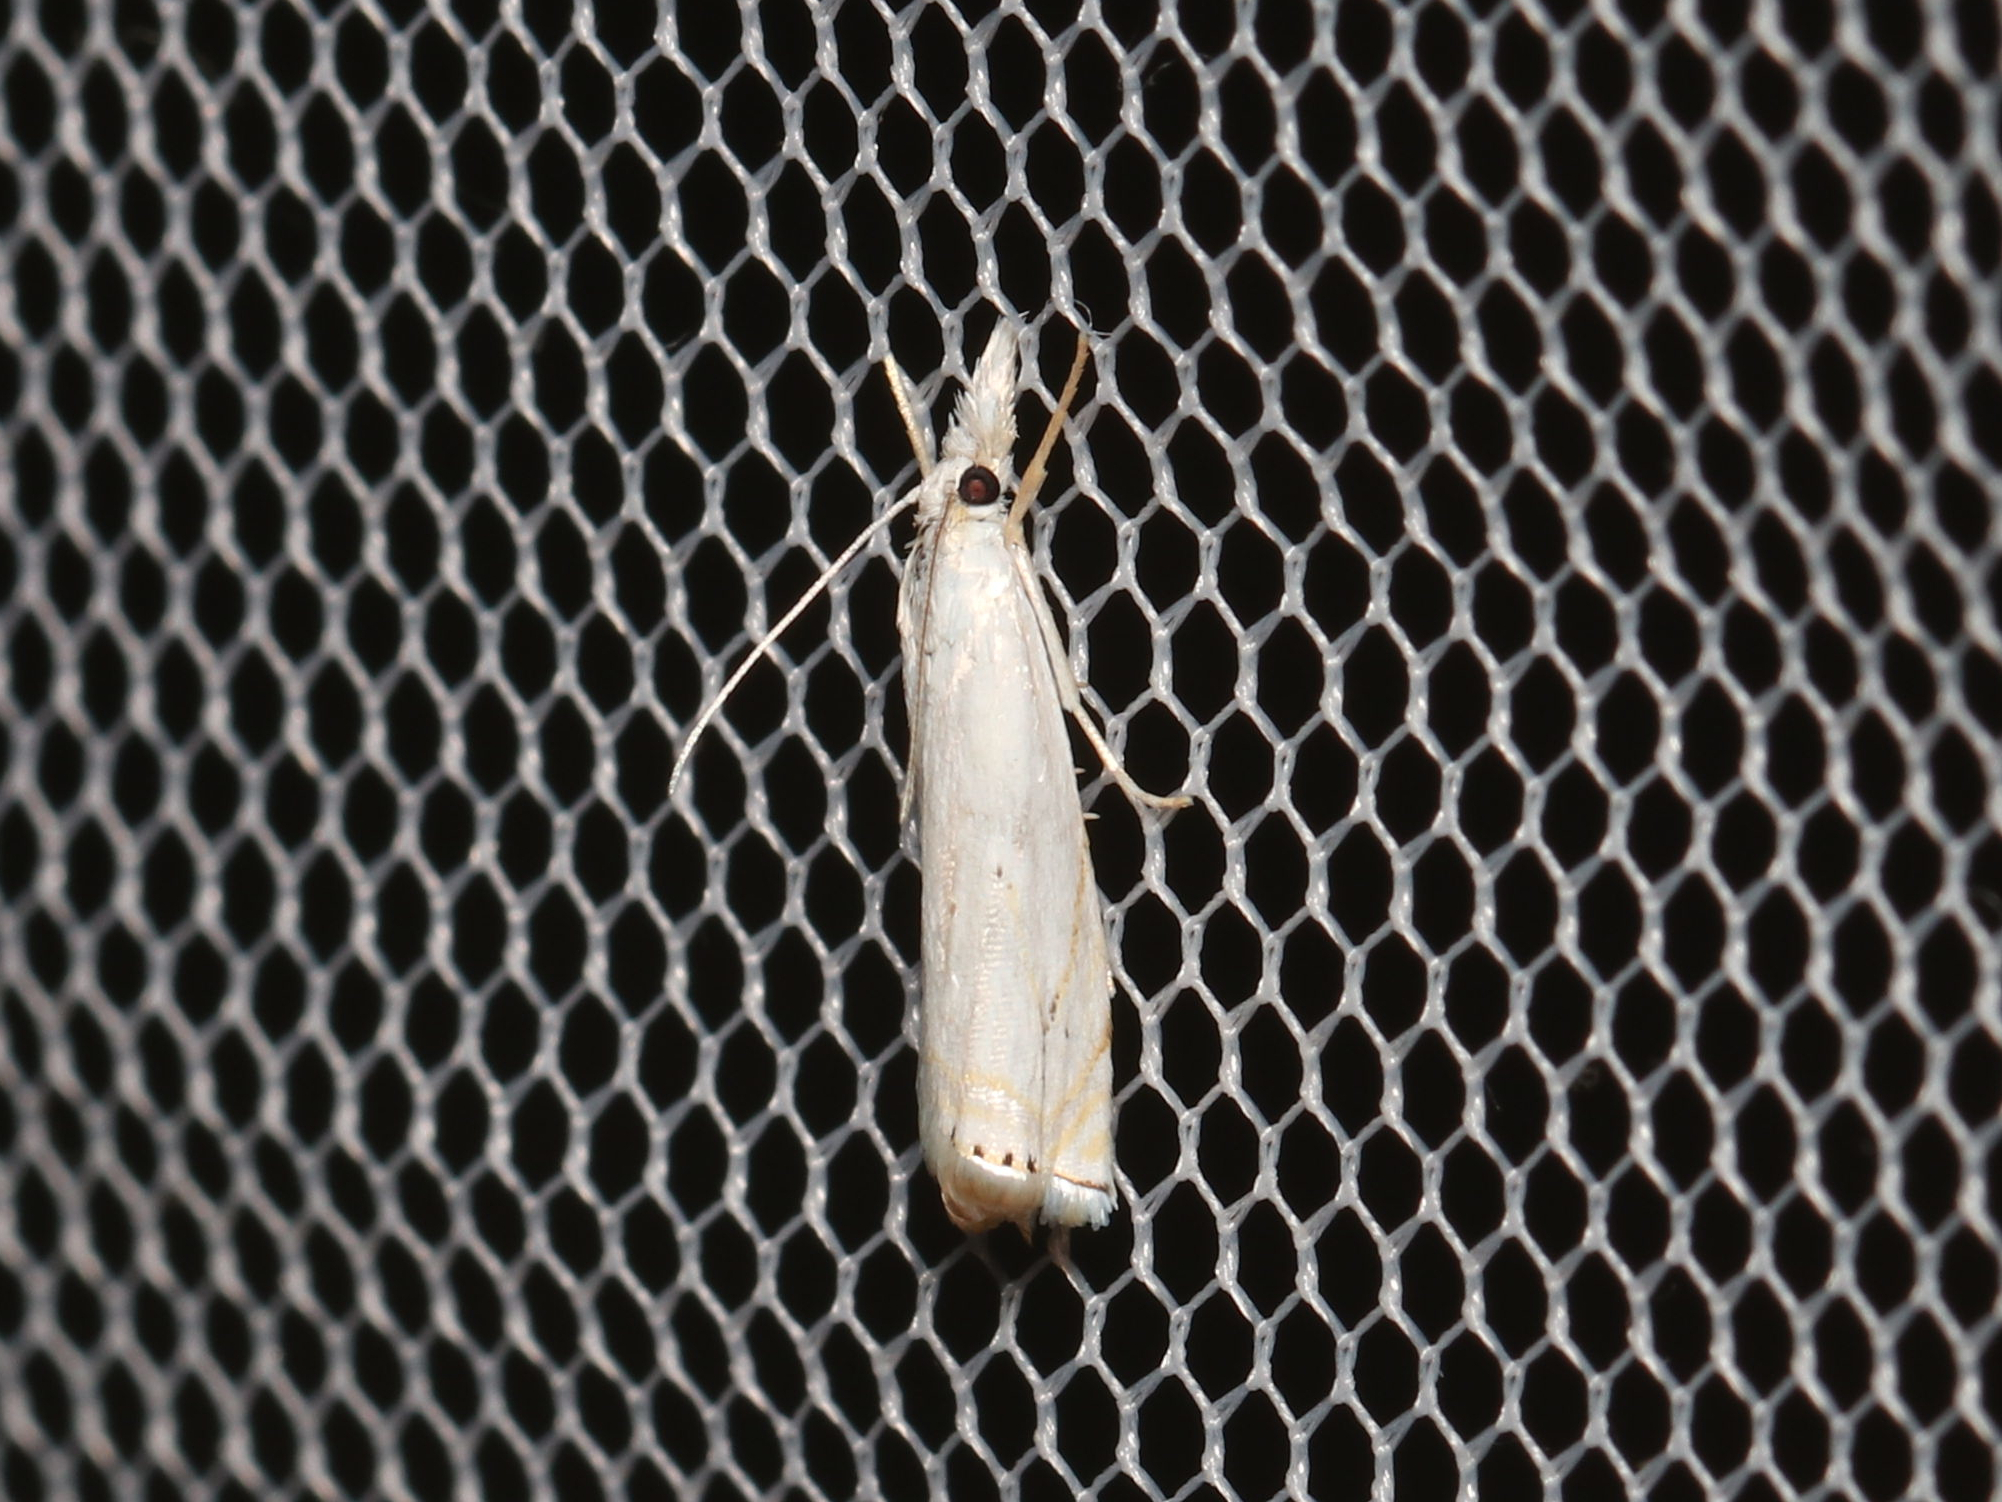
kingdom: Animalia
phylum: Arthropoda
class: Insecta
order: Lepidoptera
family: Crambidae
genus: Crambus
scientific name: Crambus albellus
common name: Small white grass-veneer
